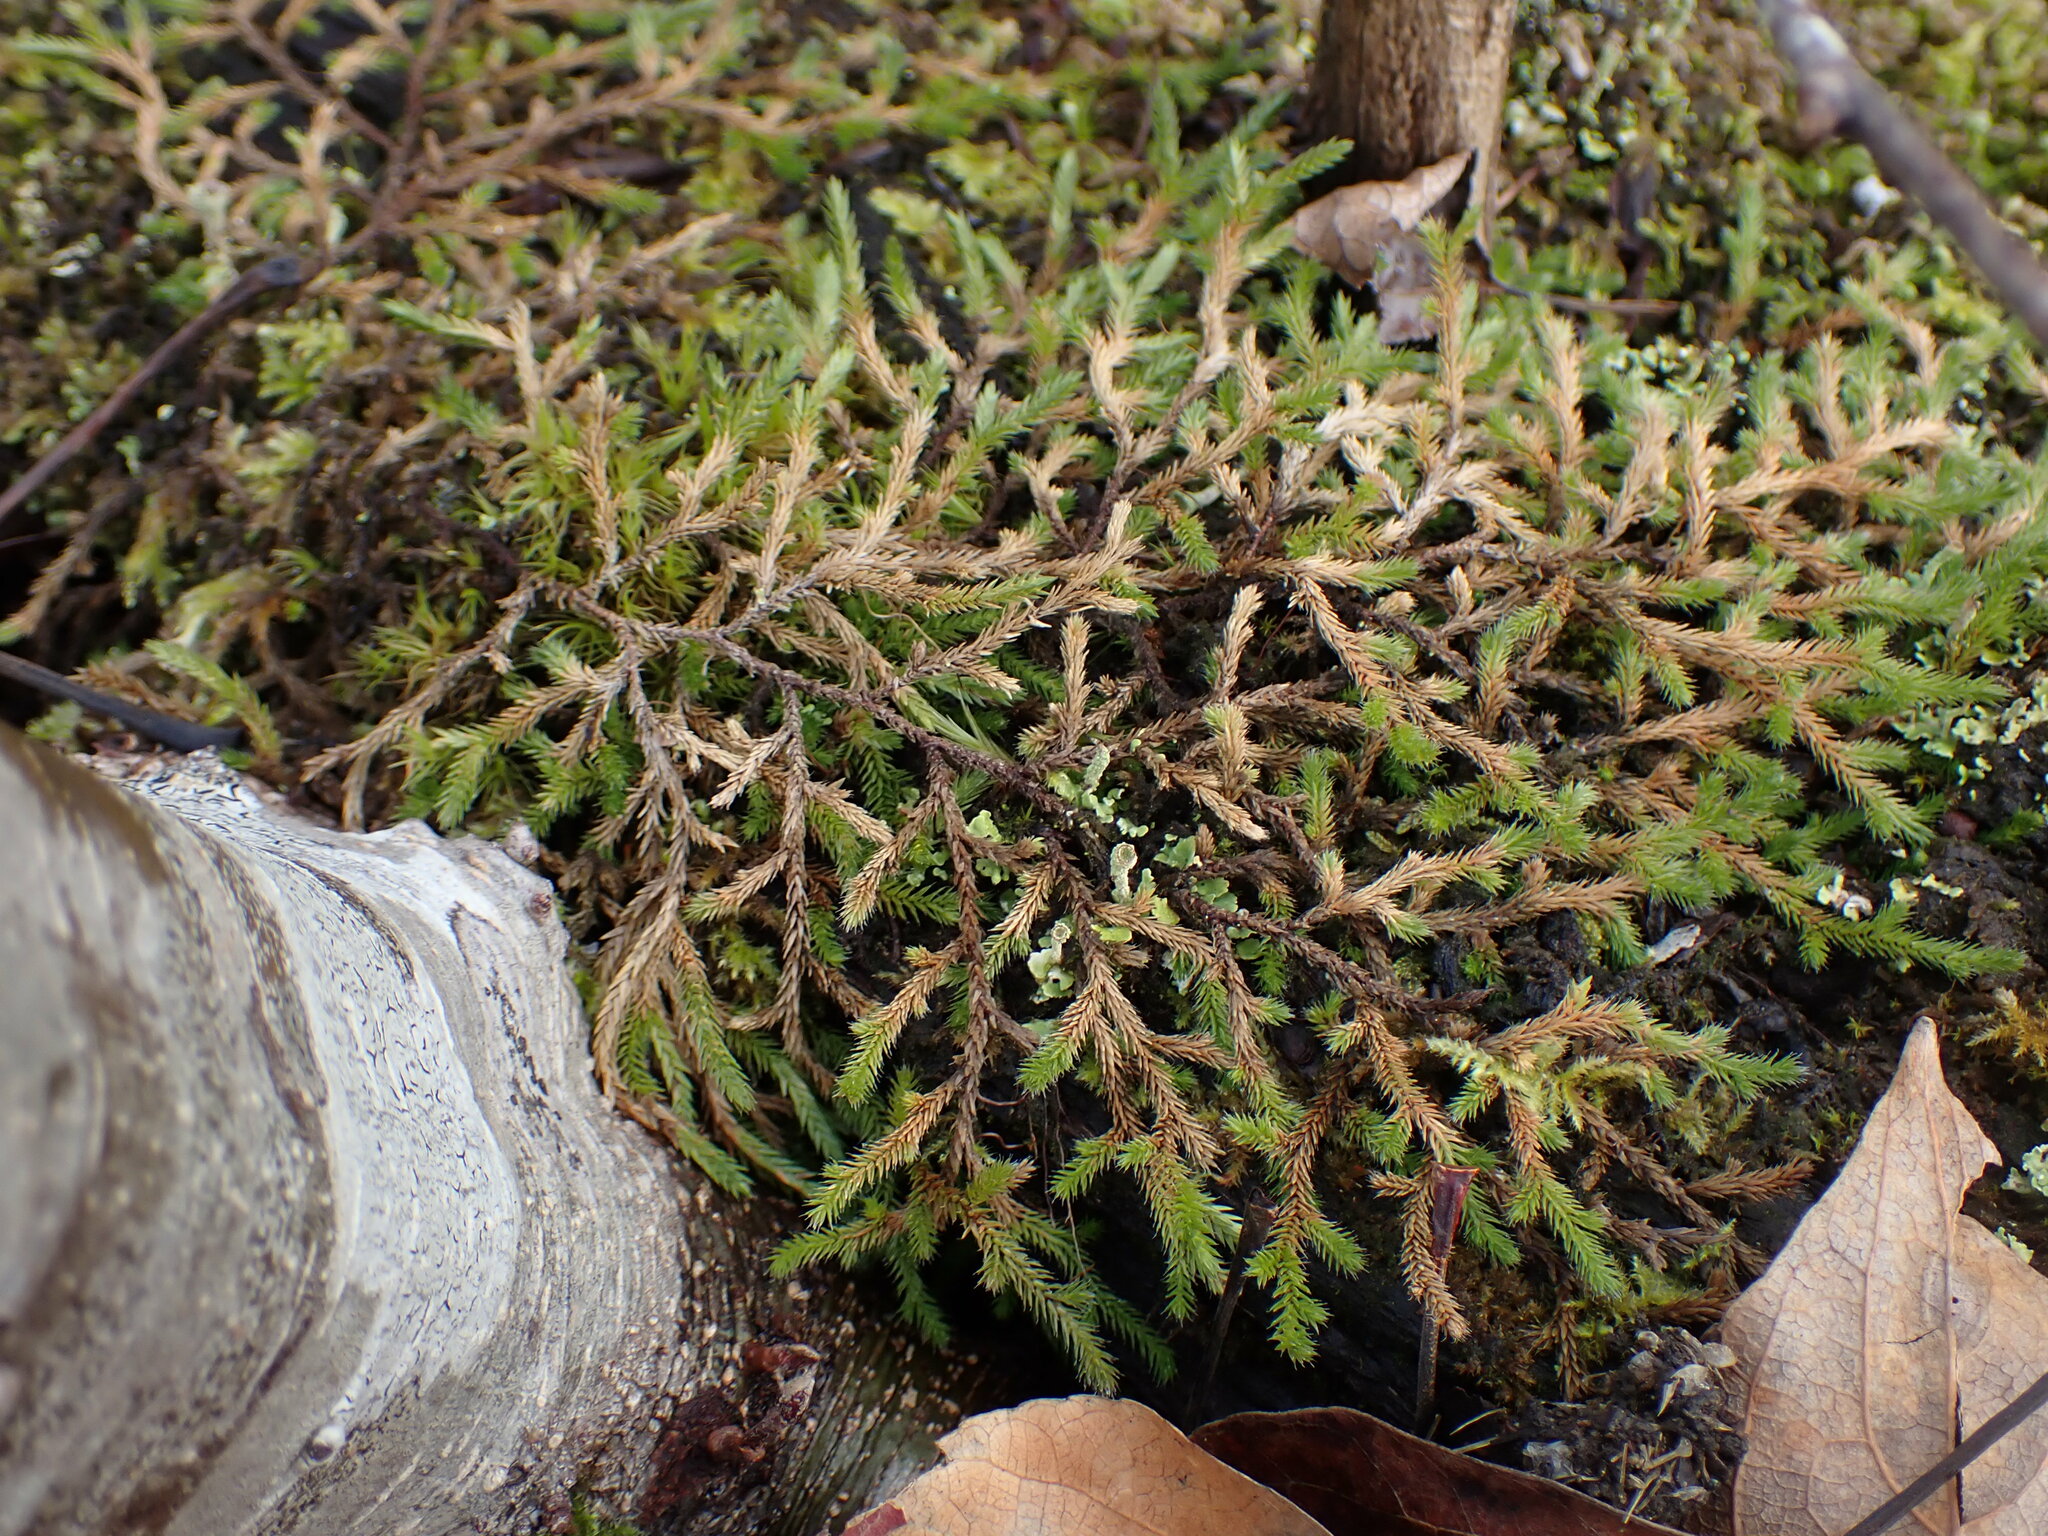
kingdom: Plantae
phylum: Tracheophyta
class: Lycopodiopsida
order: Selaginellales
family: Selaginellaceae
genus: Selaginella
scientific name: Selaginella wallacei
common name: Wallace's selaginella
